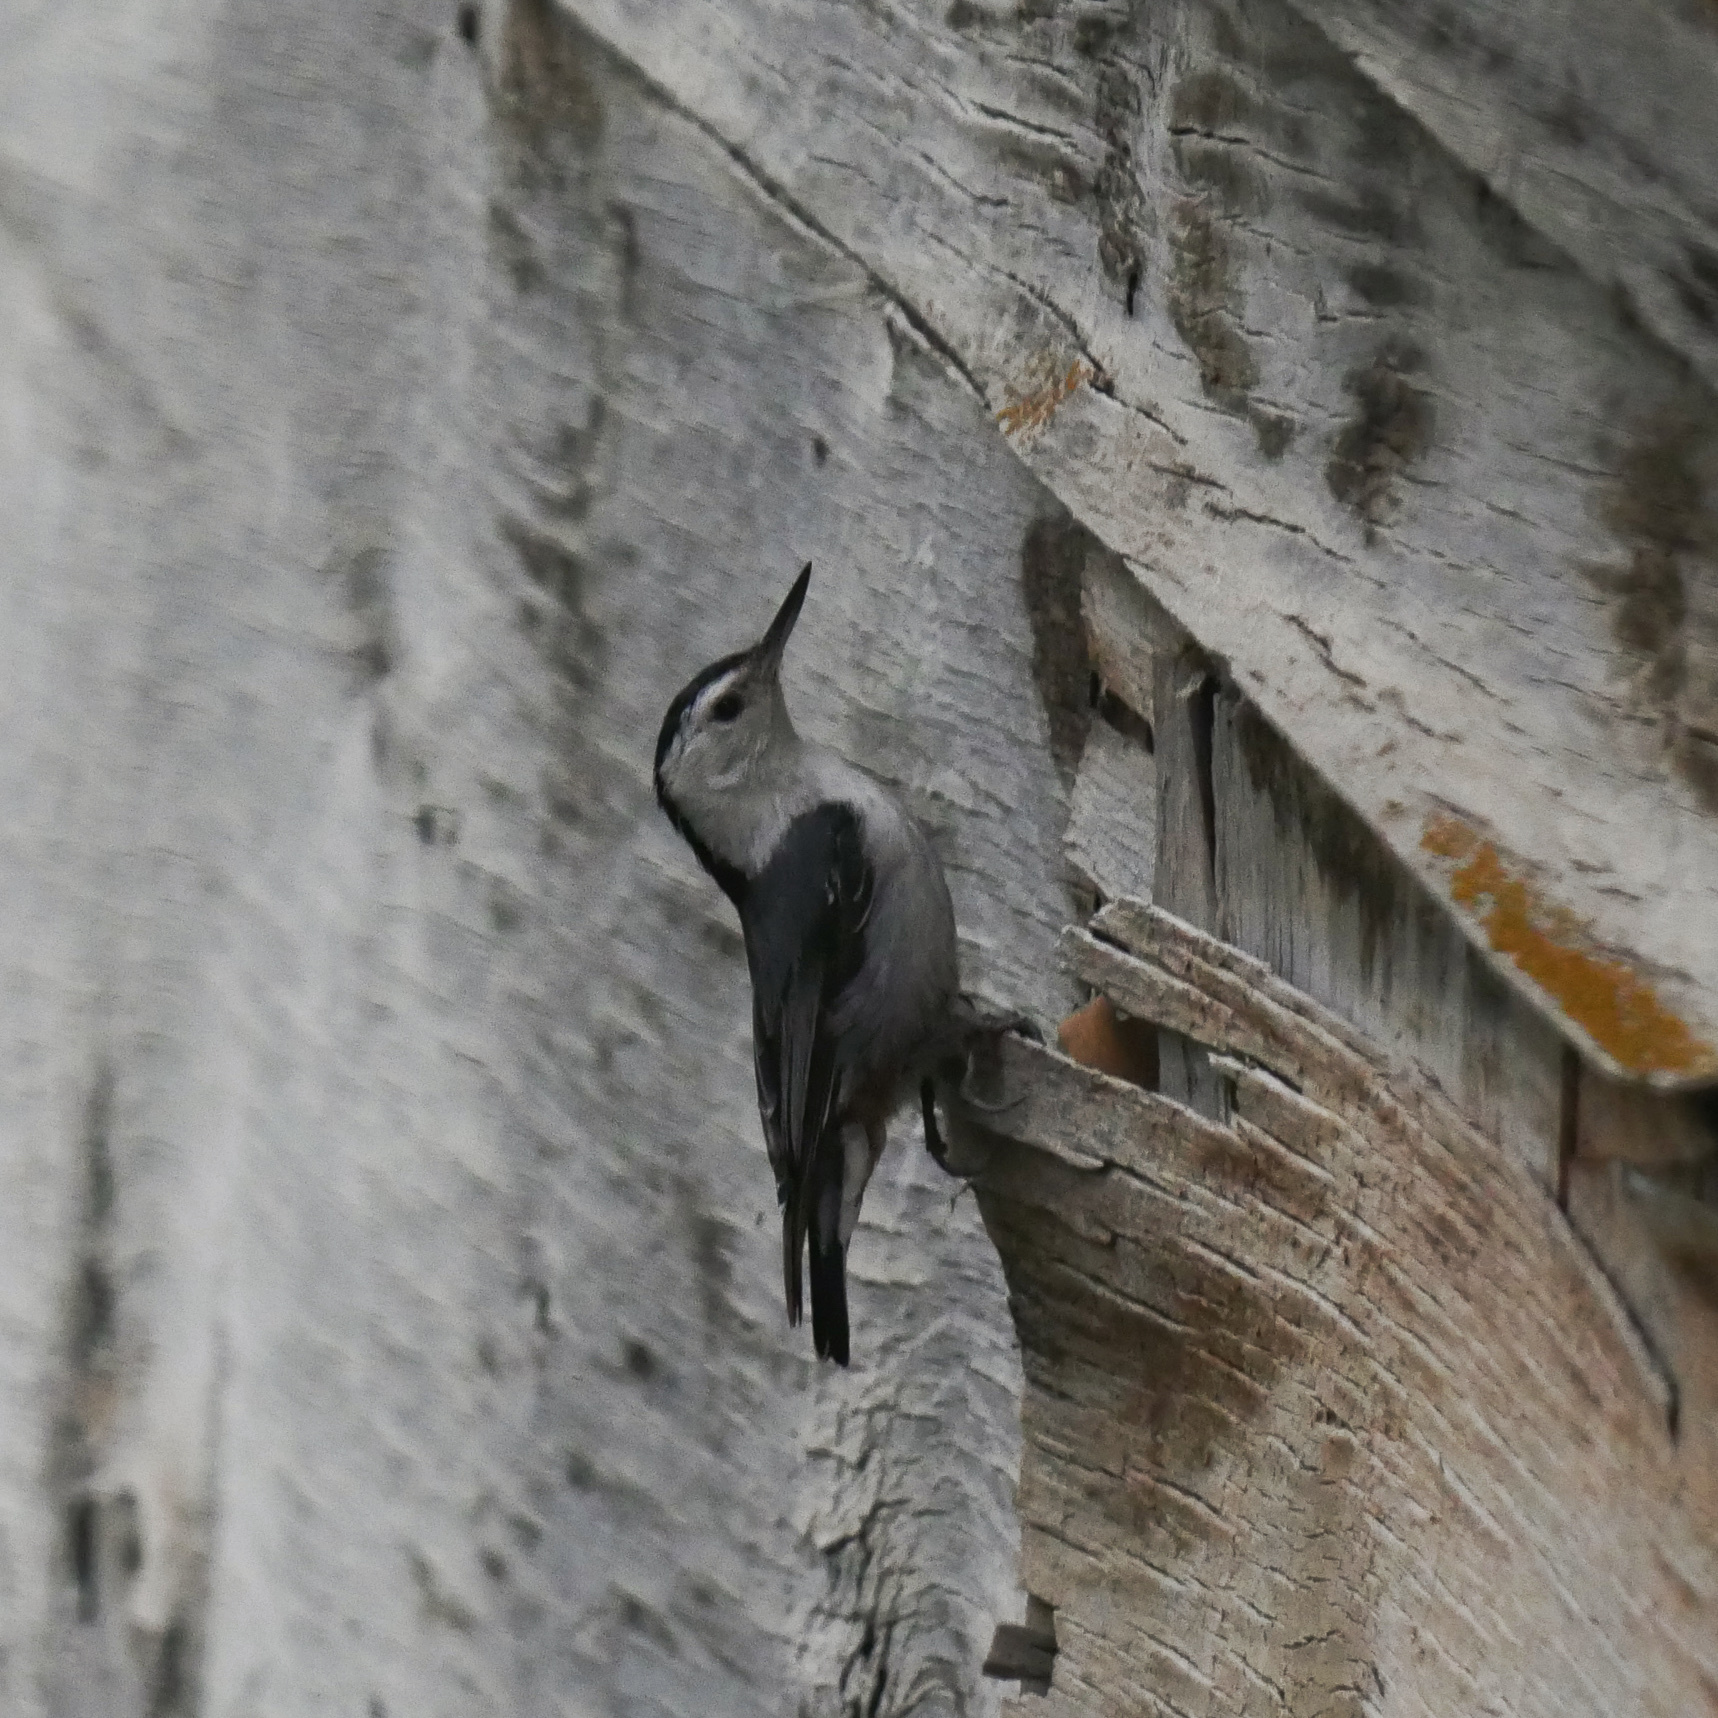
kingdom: Animalia
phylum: Chordata
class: Aves
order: Passeriformes
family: Sittidae
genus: Sitta
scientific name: Sitta carolinensis
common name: White-breasted nuthatch
